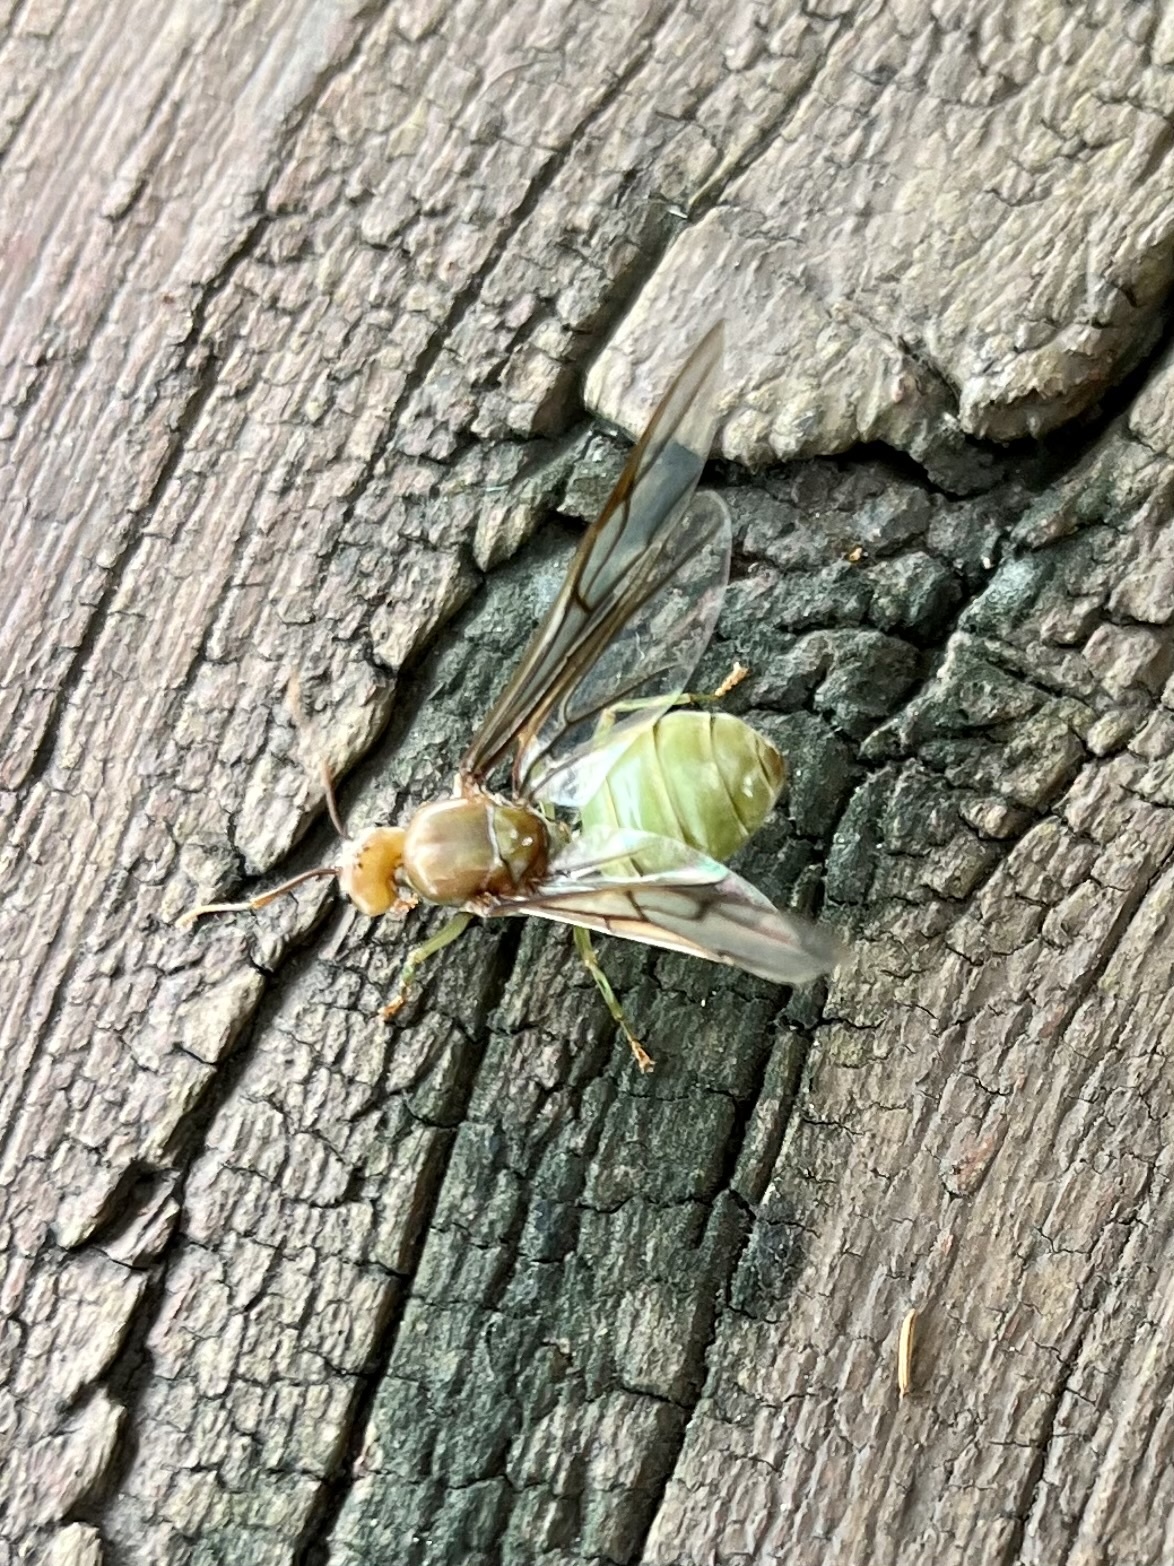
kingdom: Animalia
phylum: Arthropoda
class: Insecta
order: Hymenoptera
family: Formicidae
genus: Oecophylla
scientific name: Oecophylla smaragdina
